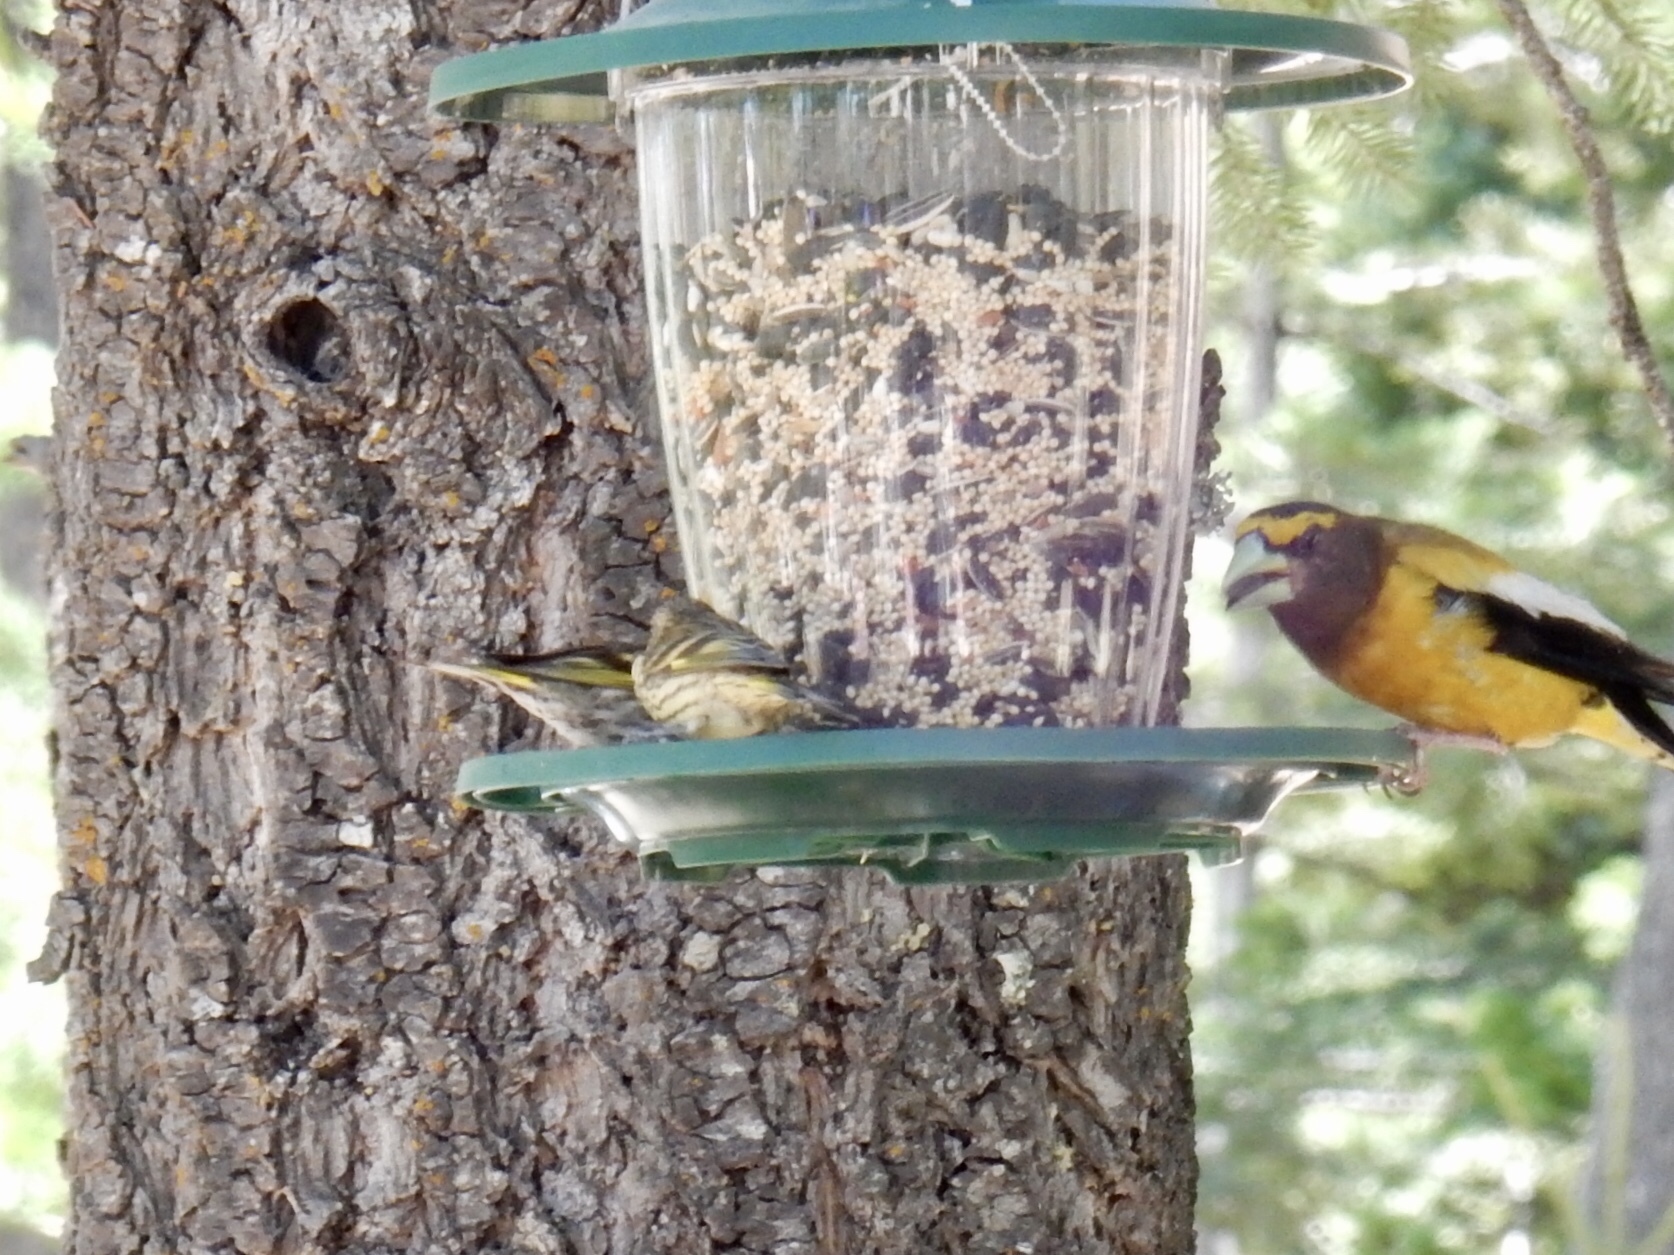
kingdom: Animalia
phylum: Chordata
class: Aves
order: Passeriformes
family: Fringillidae
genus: Hesperiphona
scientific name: Hesperiphona vespertina
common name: Evening grosbeak
